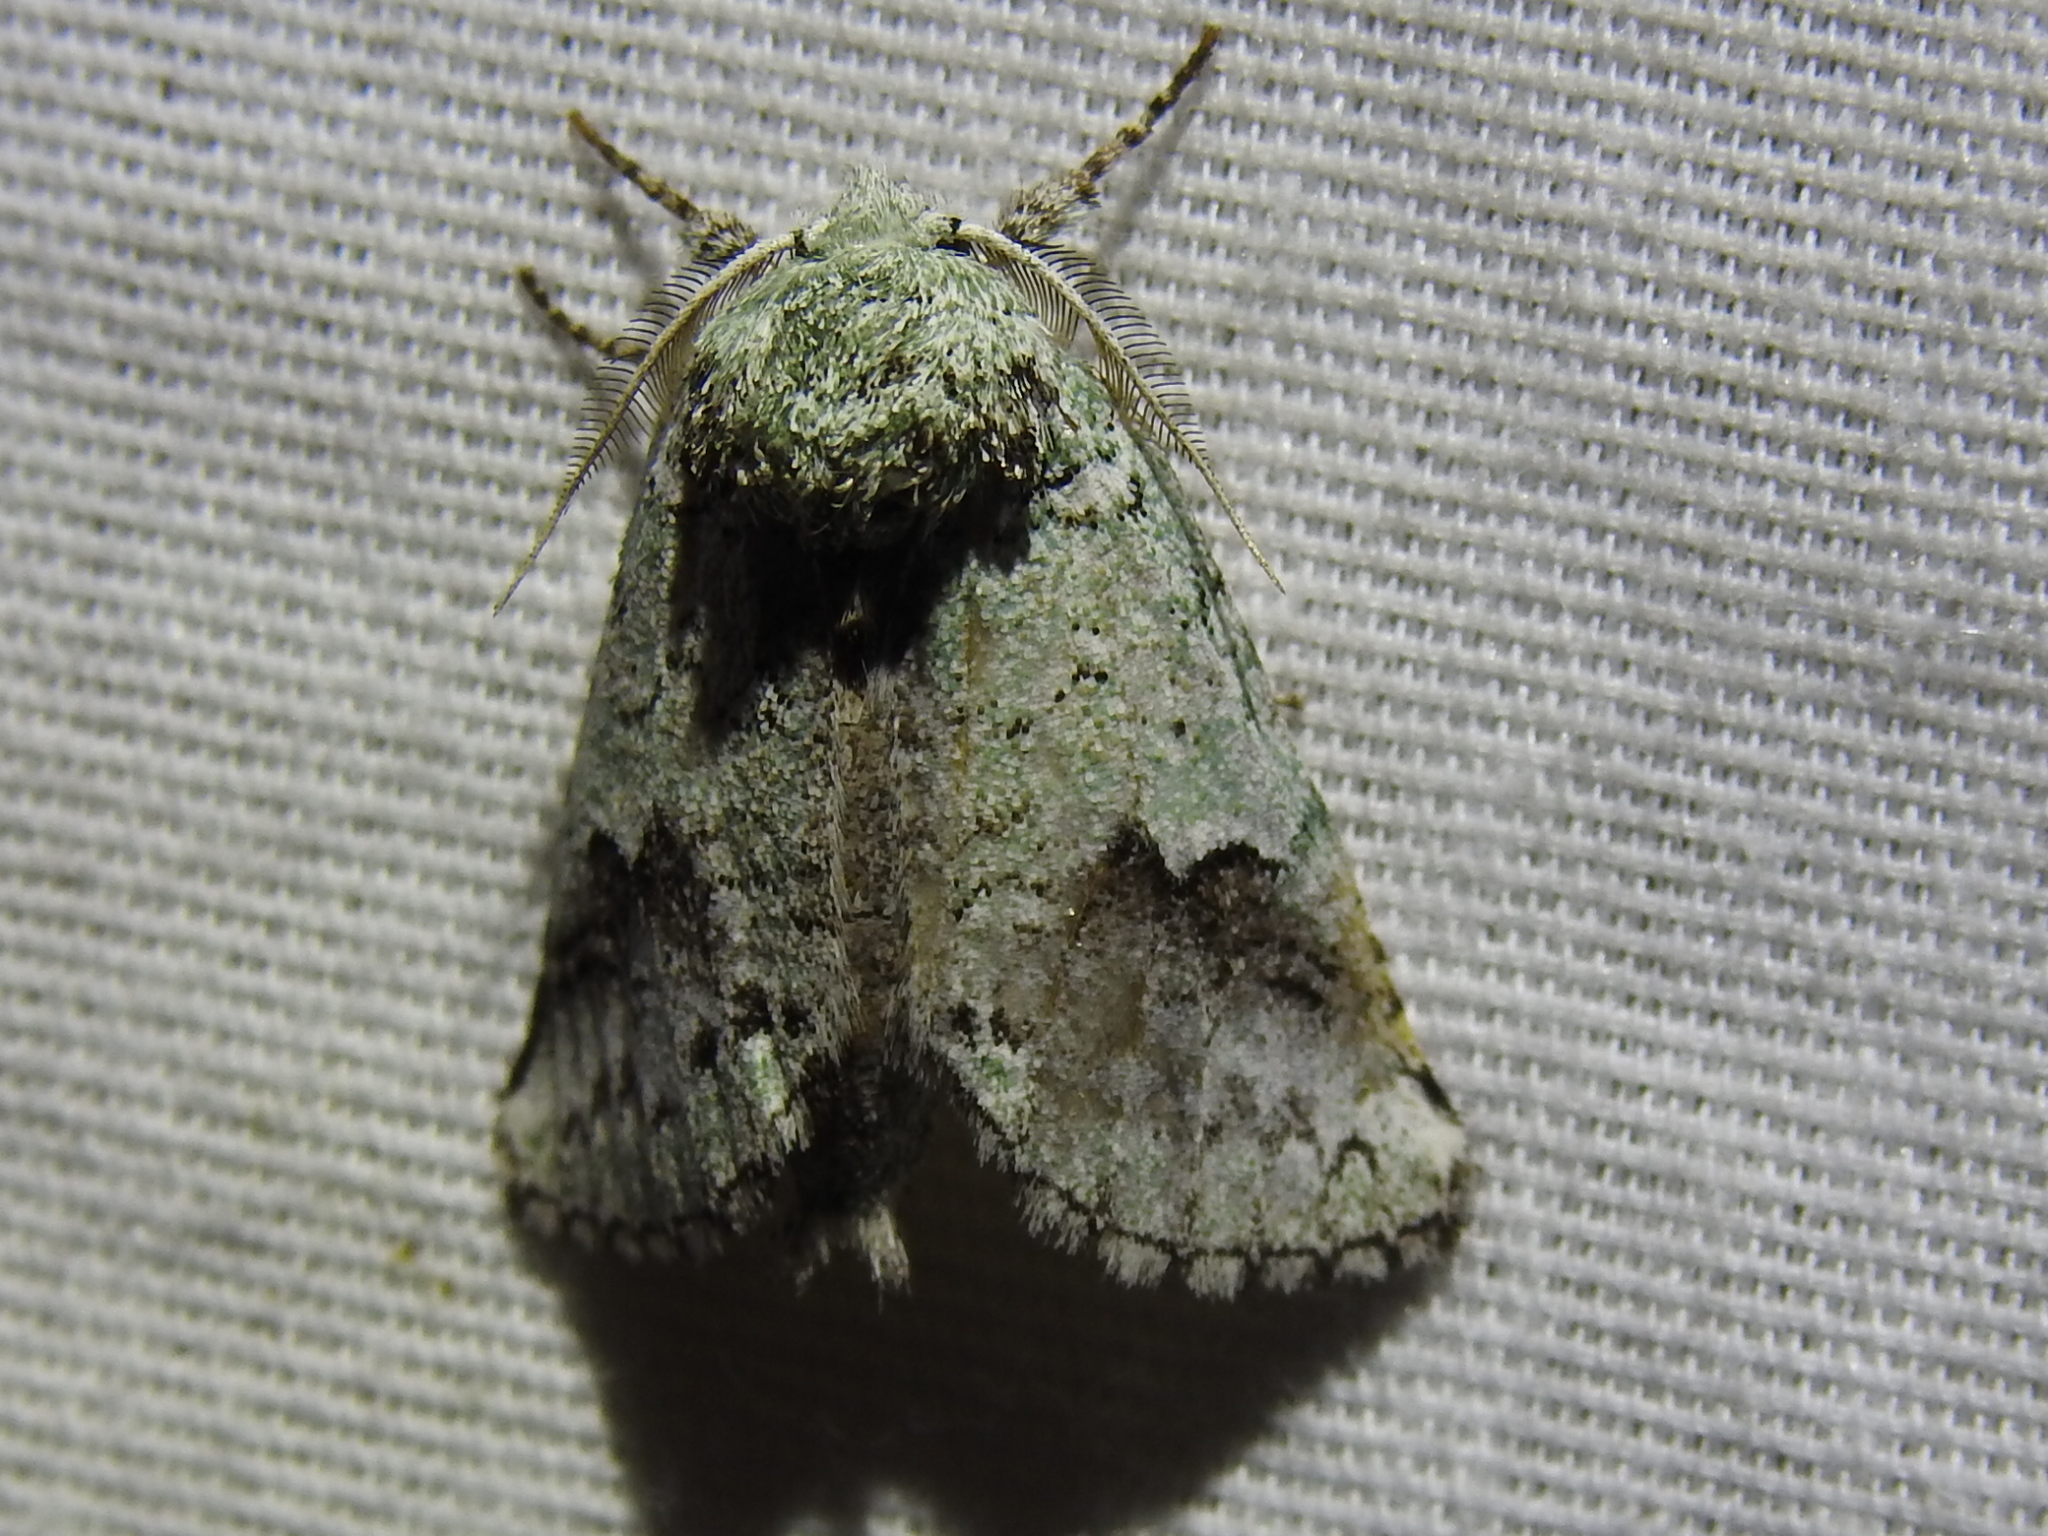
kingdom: Animalia
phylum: Arthropoda
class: Insecta
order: Lepidoptera
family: Notodontidae
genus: Litodonta
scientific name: Litodonta hydromeli
